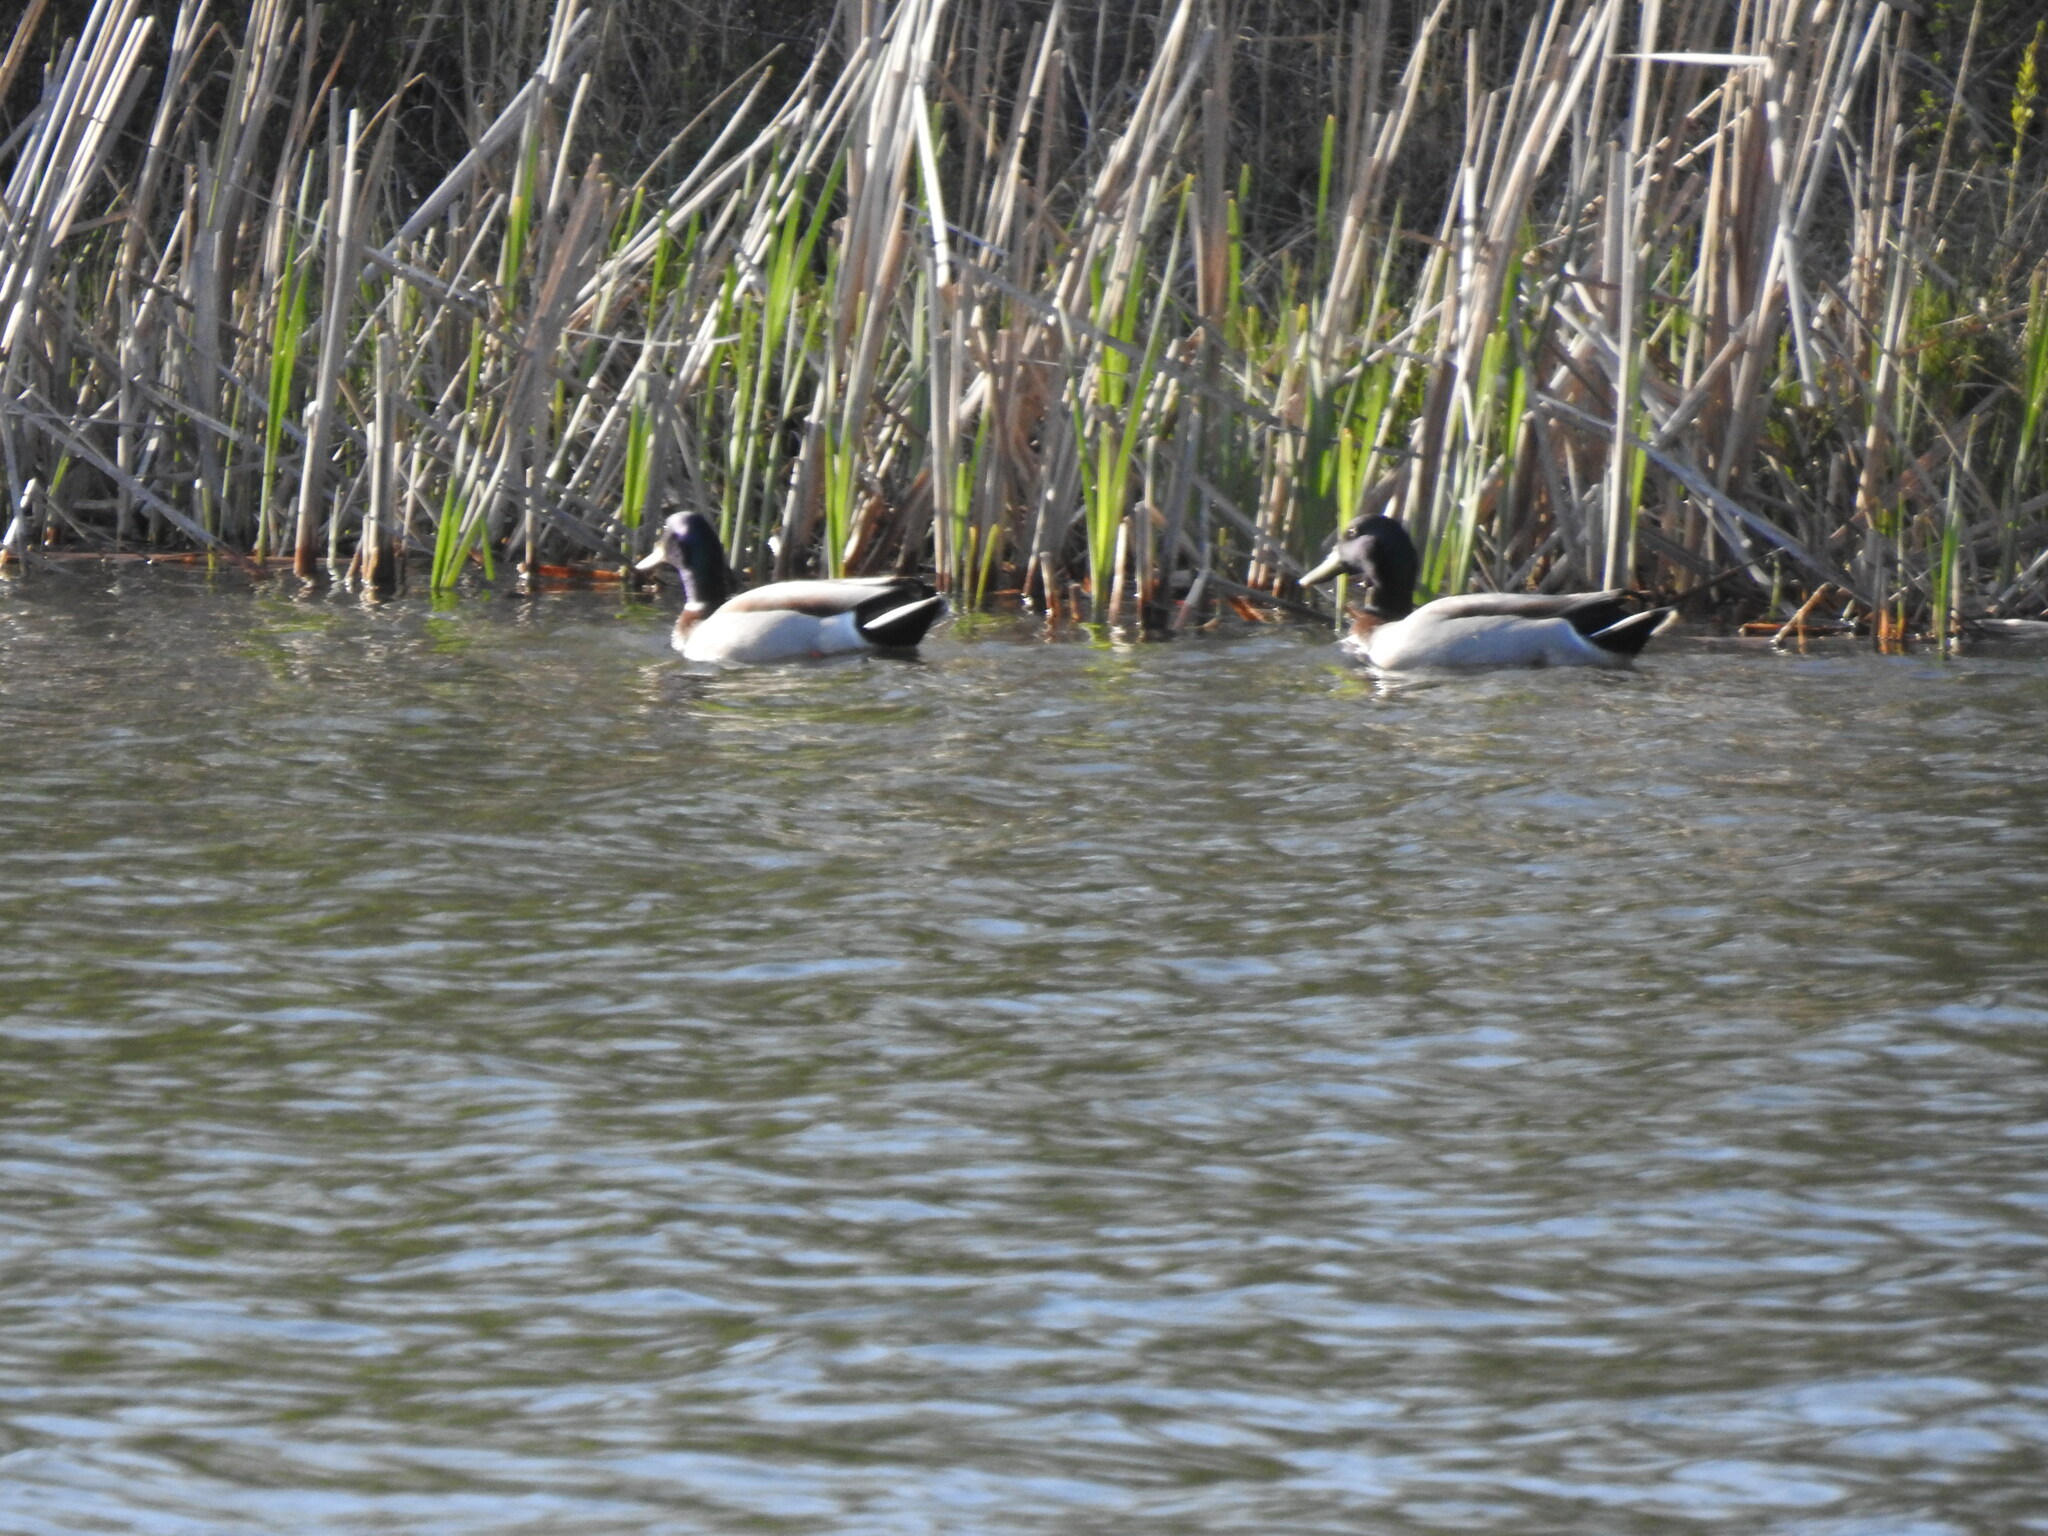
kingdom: Animalia
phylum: Chordata
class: Aves
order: Anseriformes
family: Anatidae
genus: Anas
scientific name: Anas platyrhynchos
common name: Mallard
